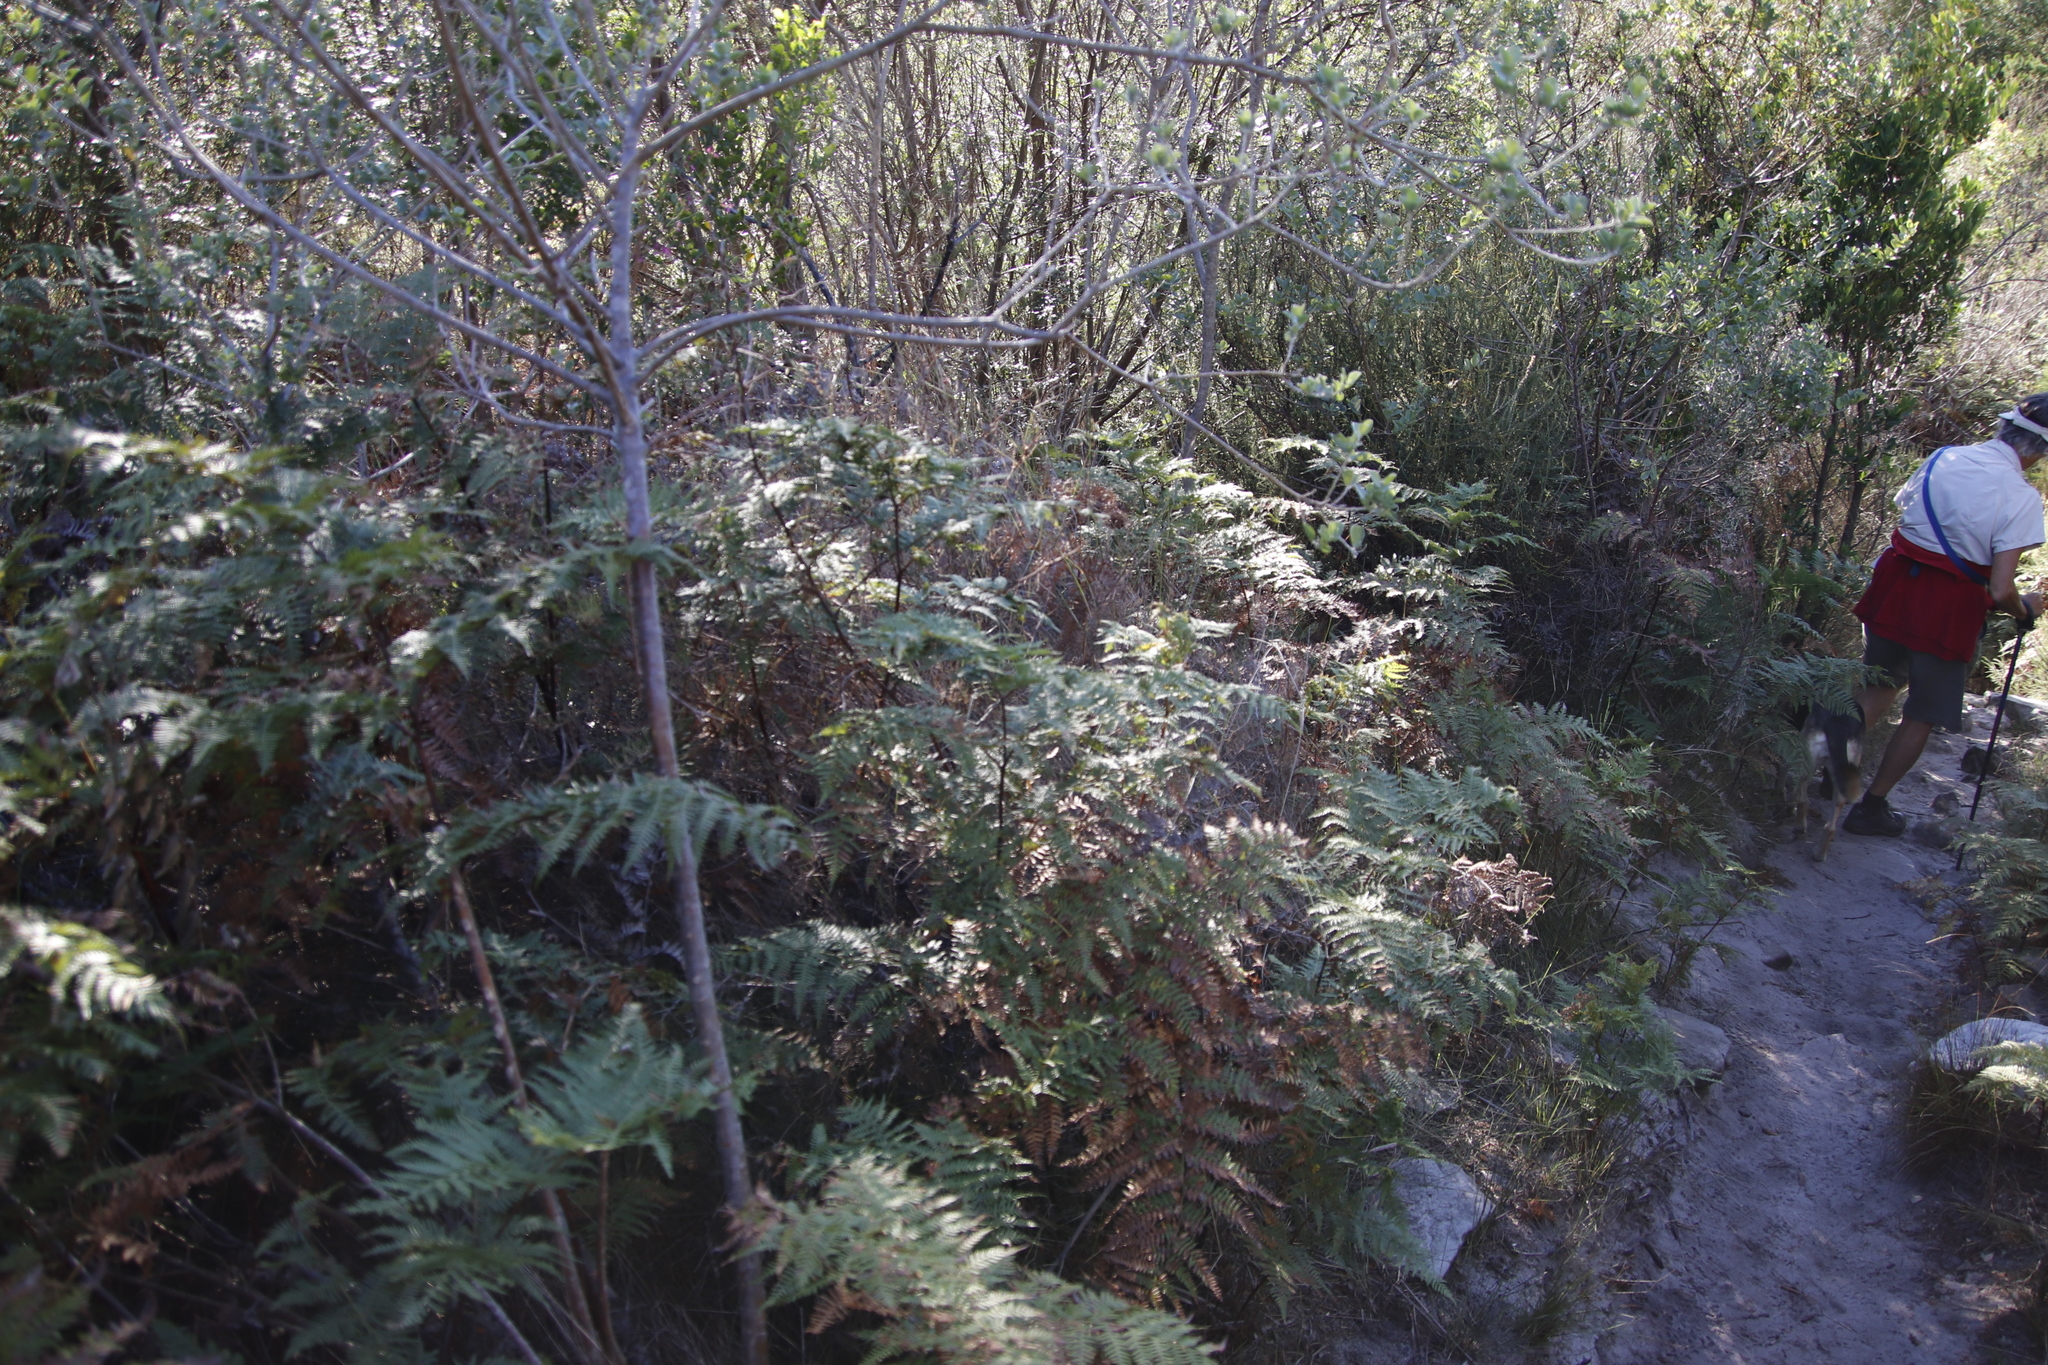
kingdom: Plantae
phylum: Tracheophyta
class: Polypodiopsida
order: Polypodiales
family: Dennstaedtiaceae
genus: Pteridium
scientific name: Pteridium aquilinum
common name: Bracken
